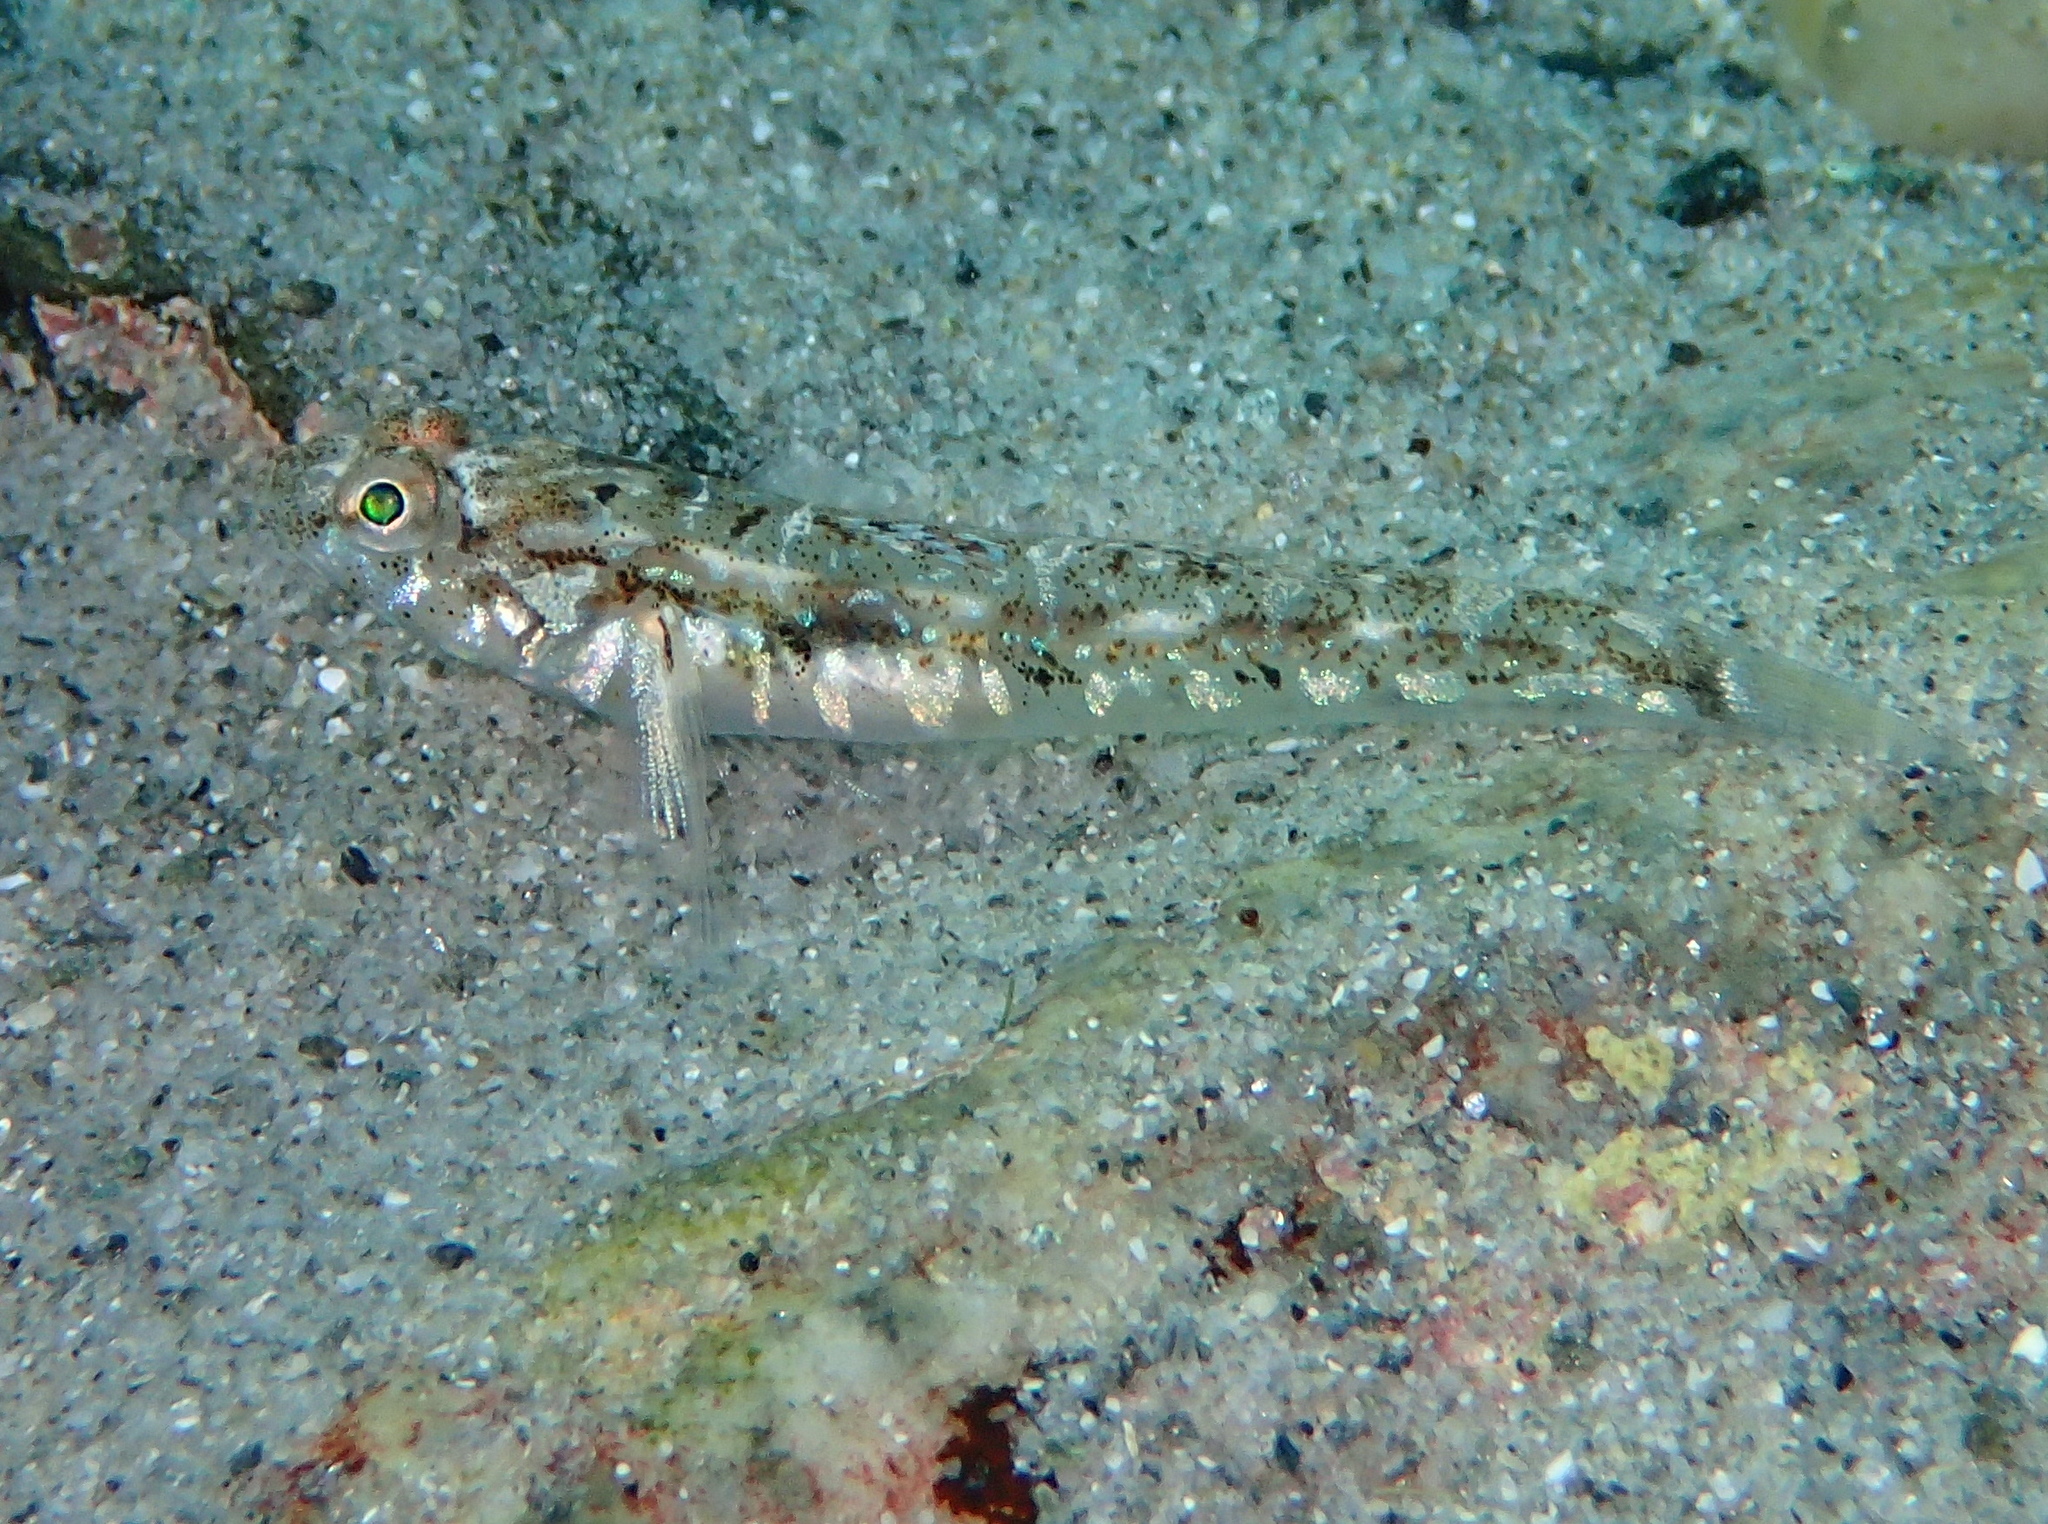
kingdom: Animalia
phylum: Chordata
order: Perciformes
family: Gobiidae
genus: Pomatoschistus
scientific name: Pomatoschistus pictus
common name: Painted goby
